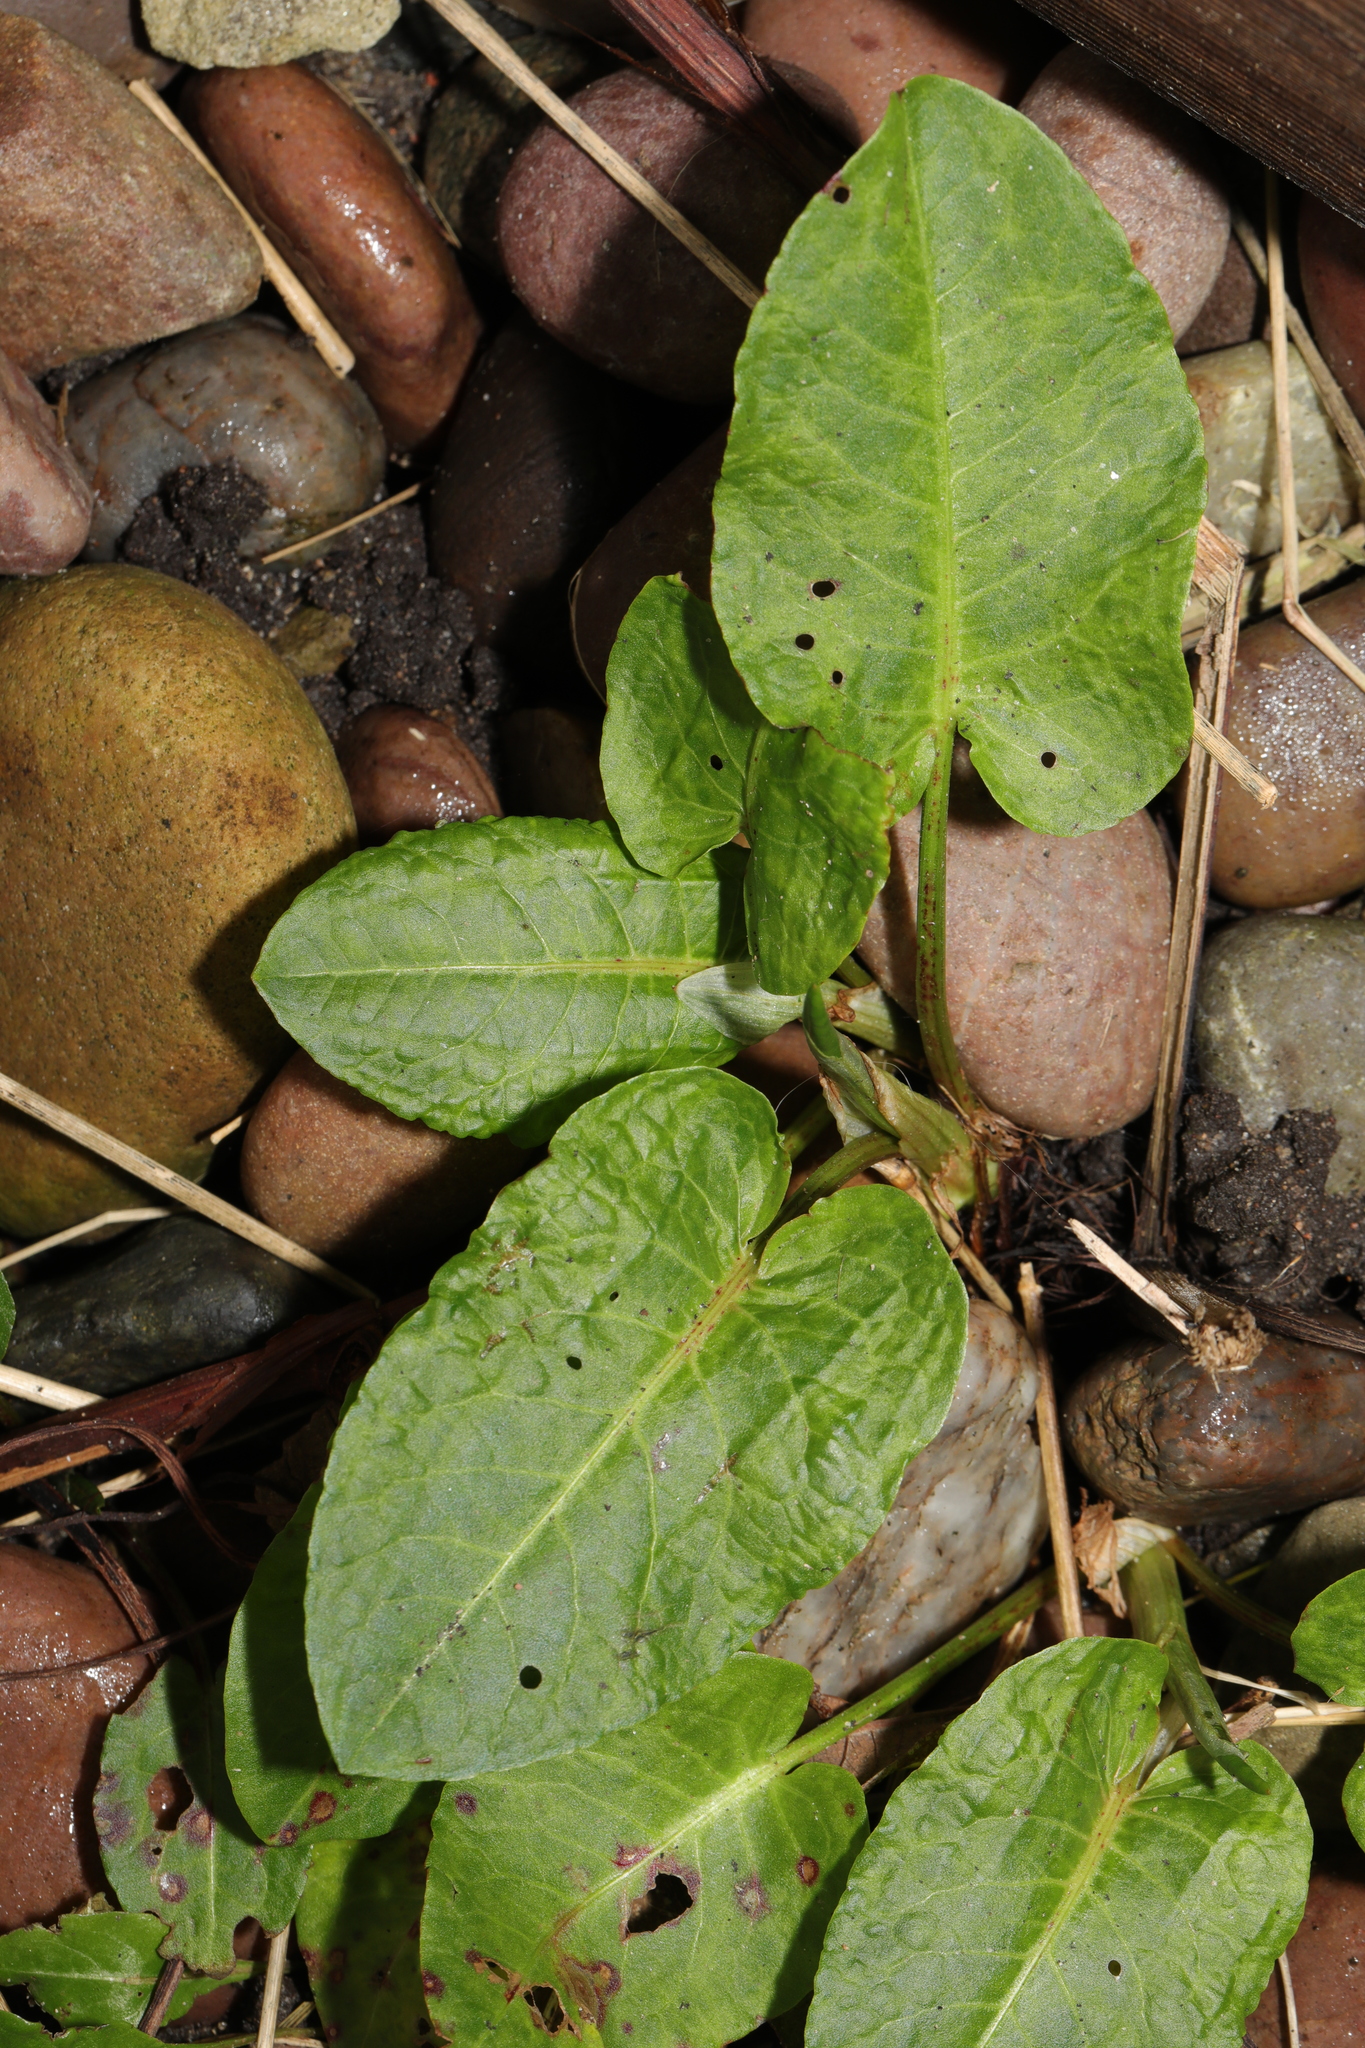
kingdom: Plantae
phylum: Tracheophyta
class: Magnoliopsida
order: Caryophyllales
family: Polygonaceae
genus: Rumex
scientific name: Rumex obtusifolius
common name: Bitter dock
